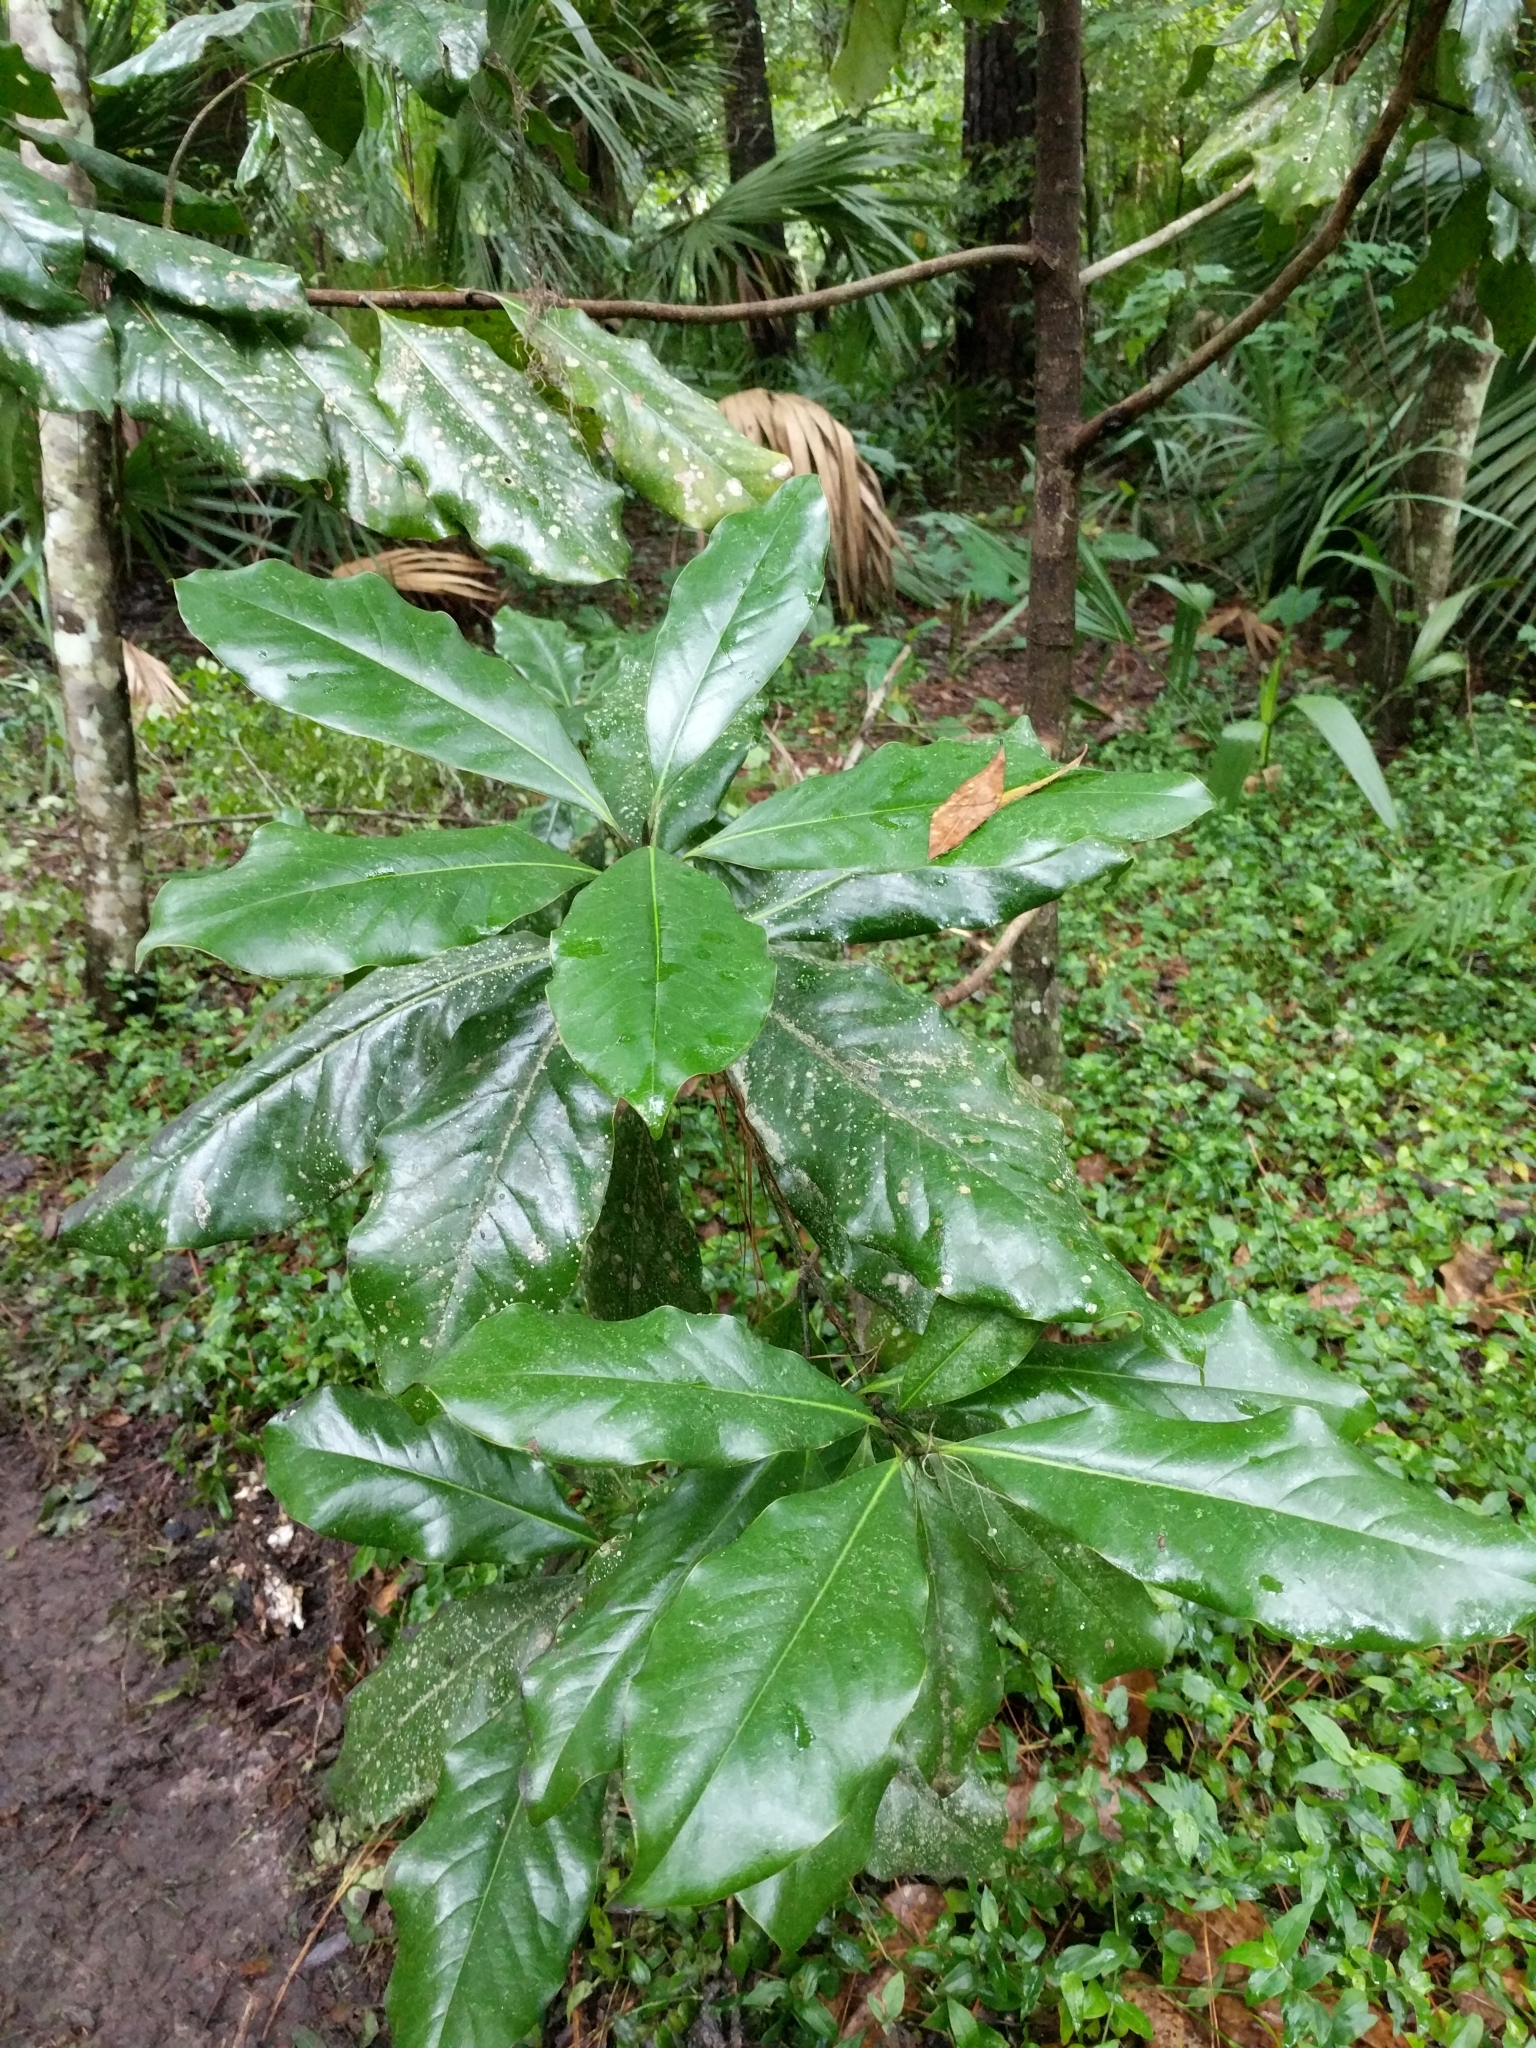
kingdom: Plantae
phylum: Tracheophyta
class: Magnoliopsida
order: Magnoliales
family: Magnoliaceae
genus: Magnolia
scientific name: Magnolia grandiflora
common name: Southern magnolia
